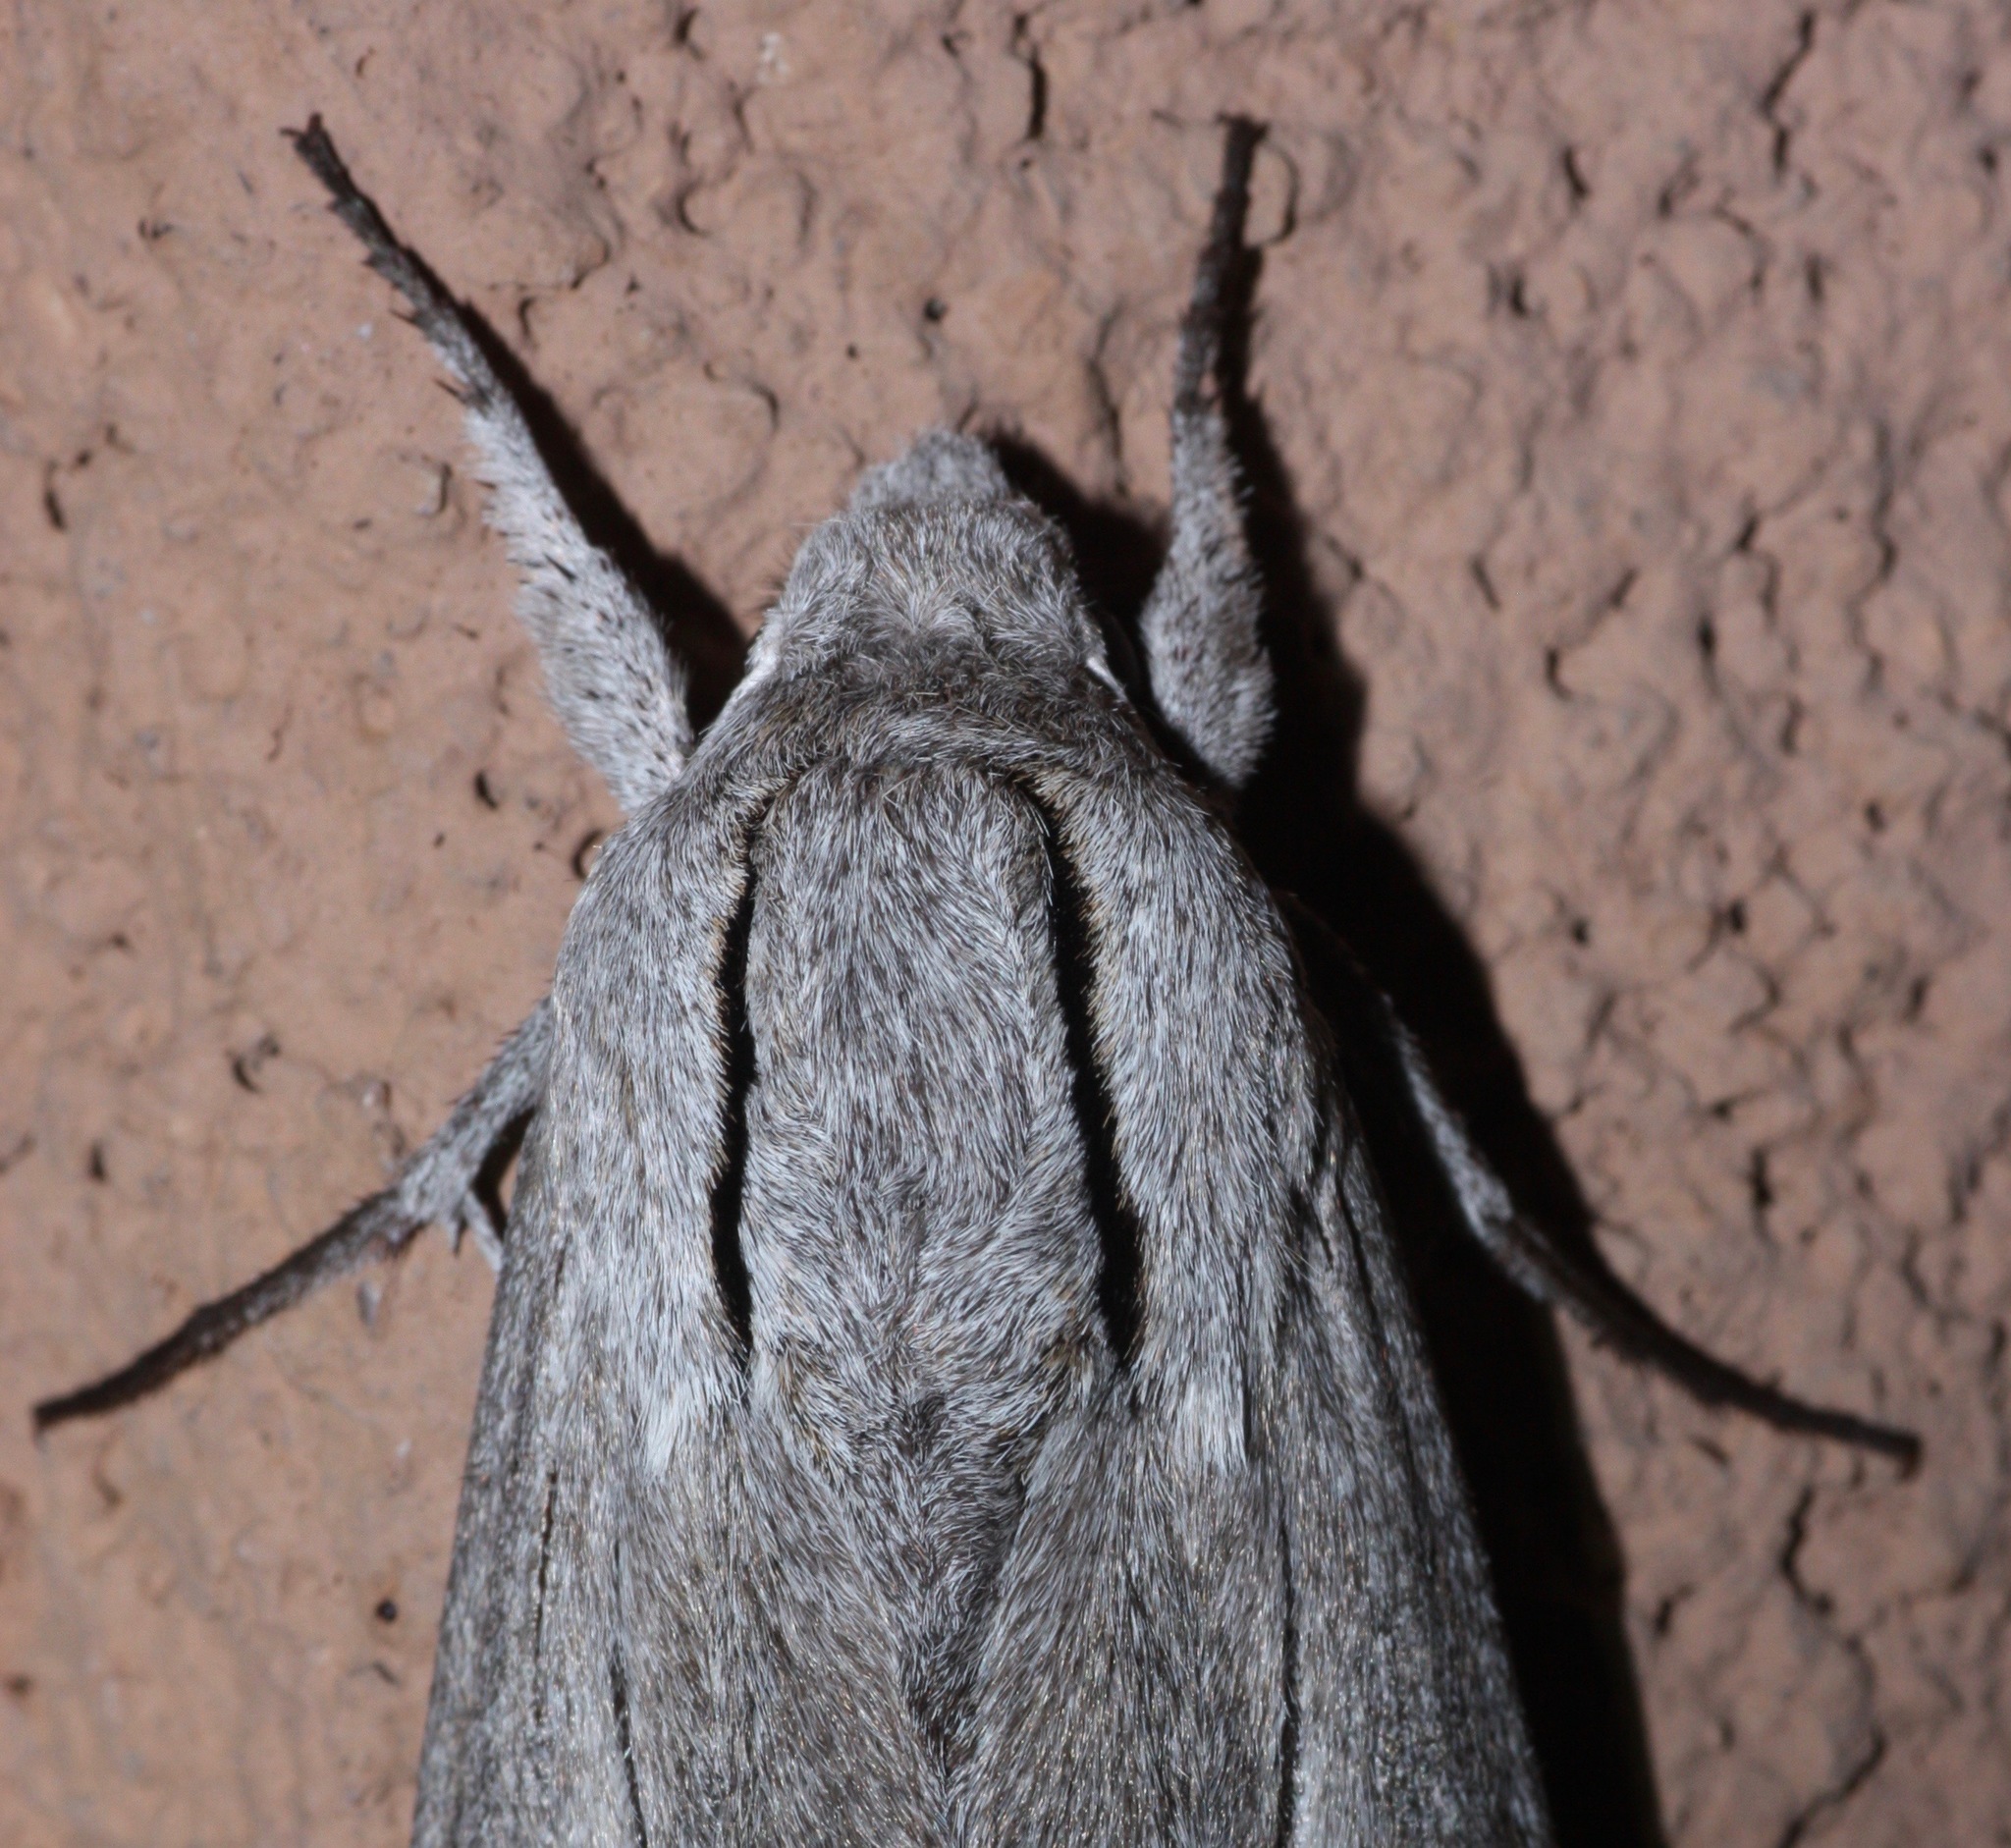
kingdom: Animalia
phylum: Arthropoda
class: Insecta
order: Lepidoptera
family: Sphingidae
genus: Sphinx
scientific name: Sphinx chersis
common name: Great ash sphinx
